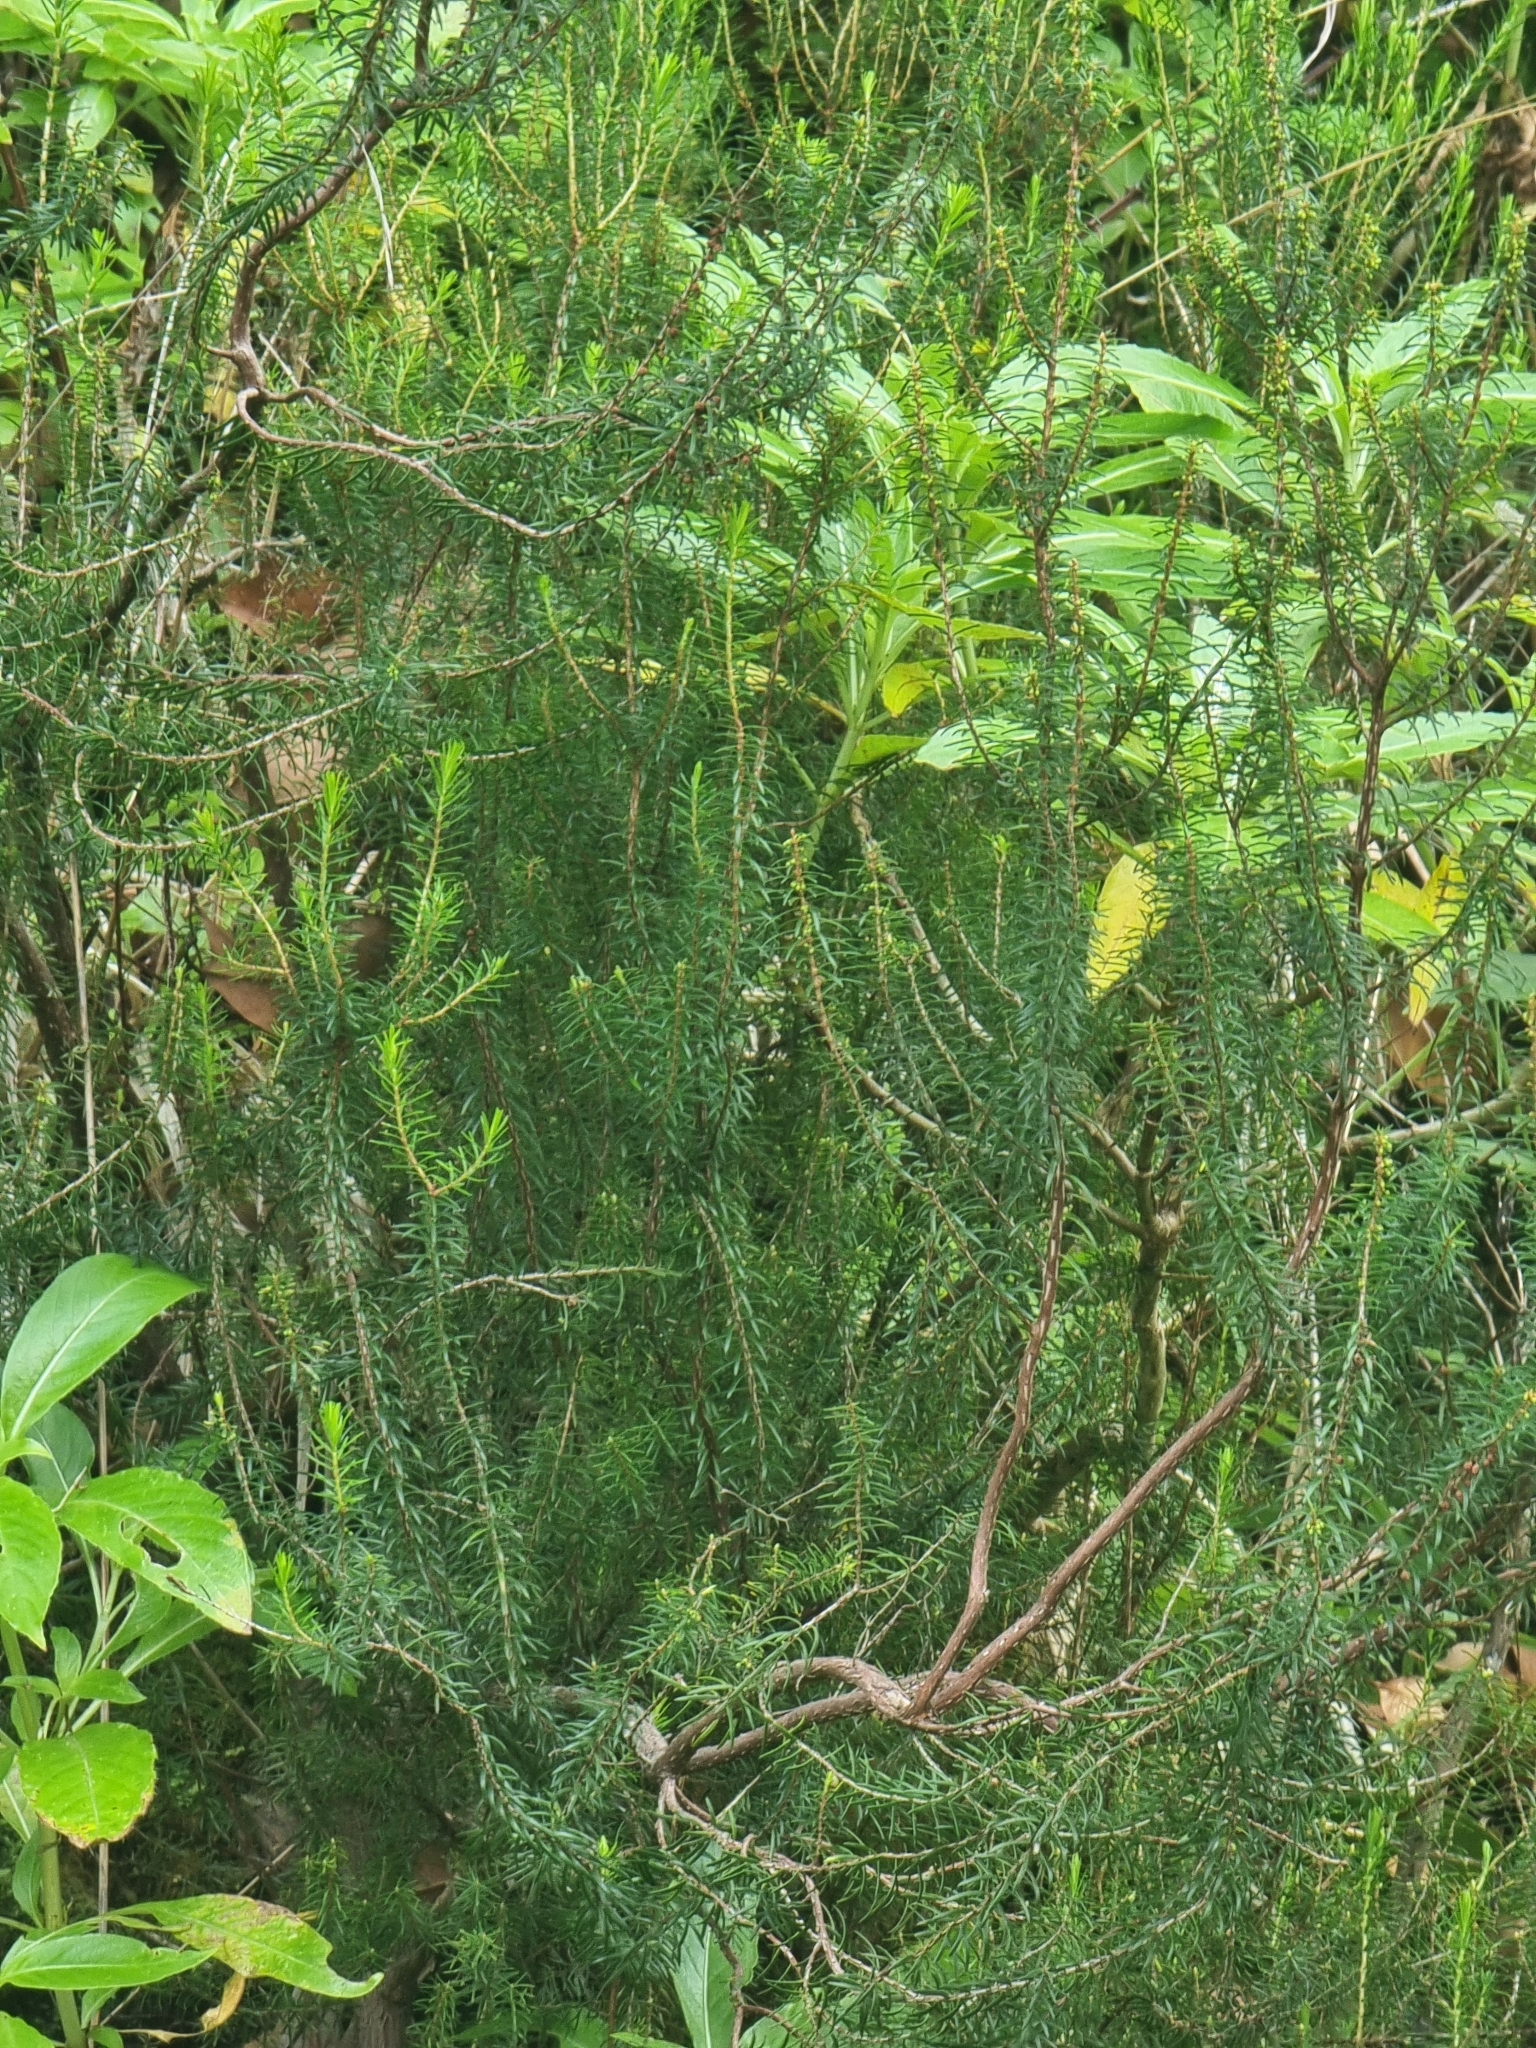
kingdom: Plantae
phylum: Tracheophyta
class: Magnoliopsida
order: Ericales
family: Ericaceae
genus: Erica
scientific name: Erica platycodon
